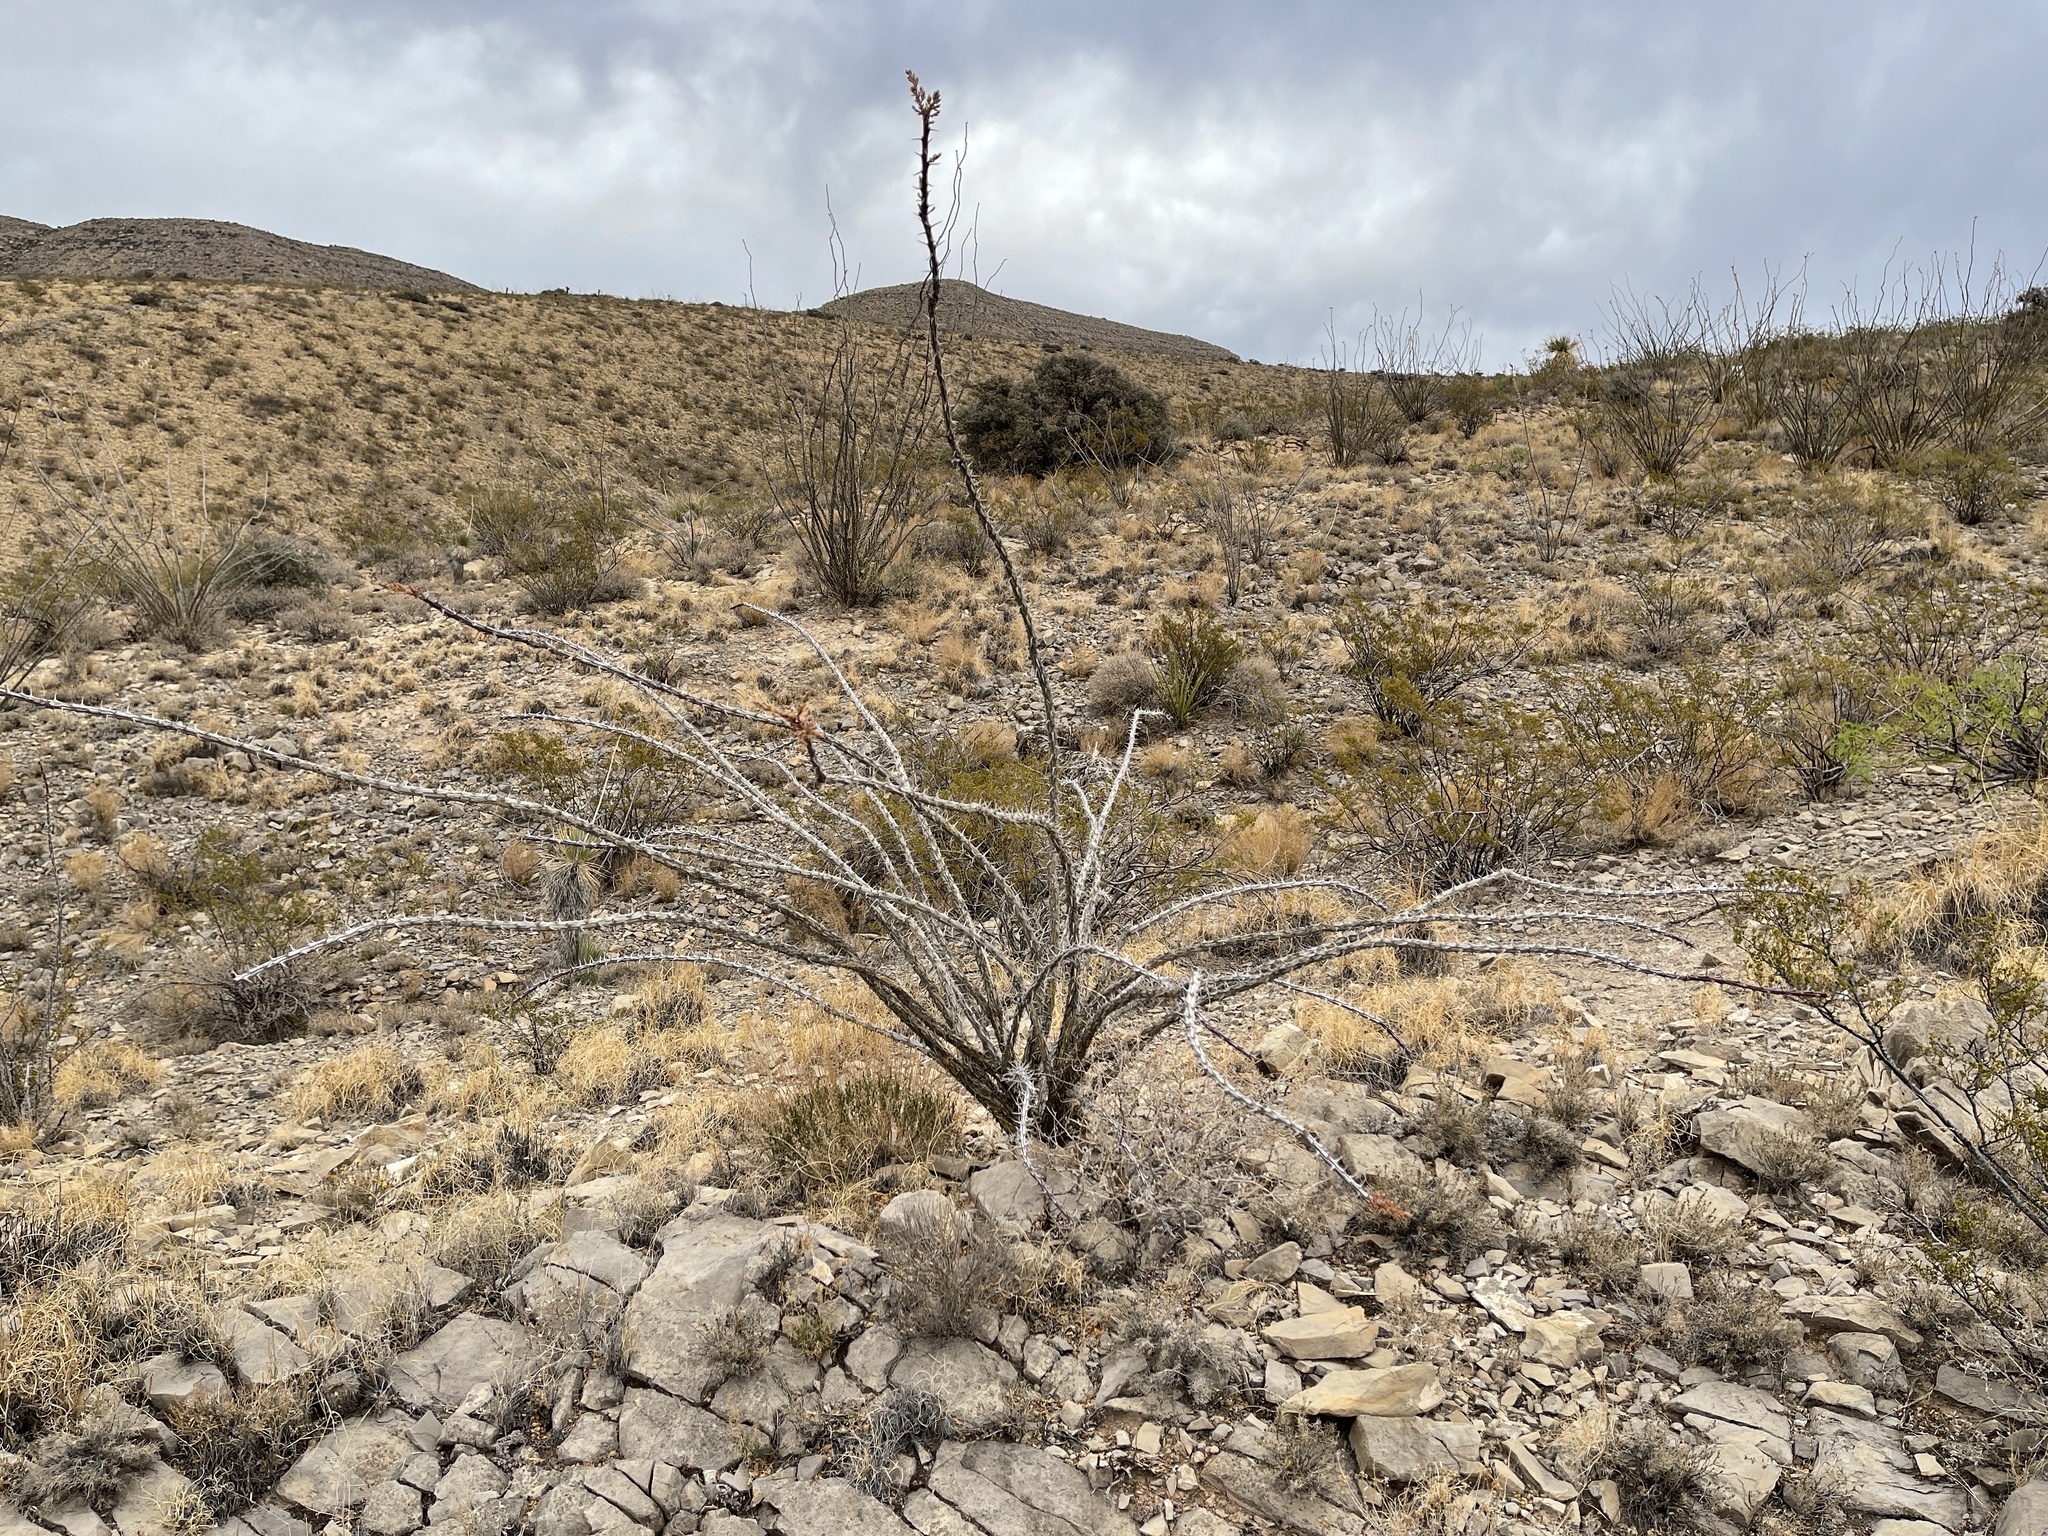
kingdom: Plantae
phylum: Tracheophyta
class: Magnoliopsida
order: Ericales
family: Fouquieriaceae
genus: Fouquieria
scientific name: Fouquieria splendens
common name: Vine-cactus
